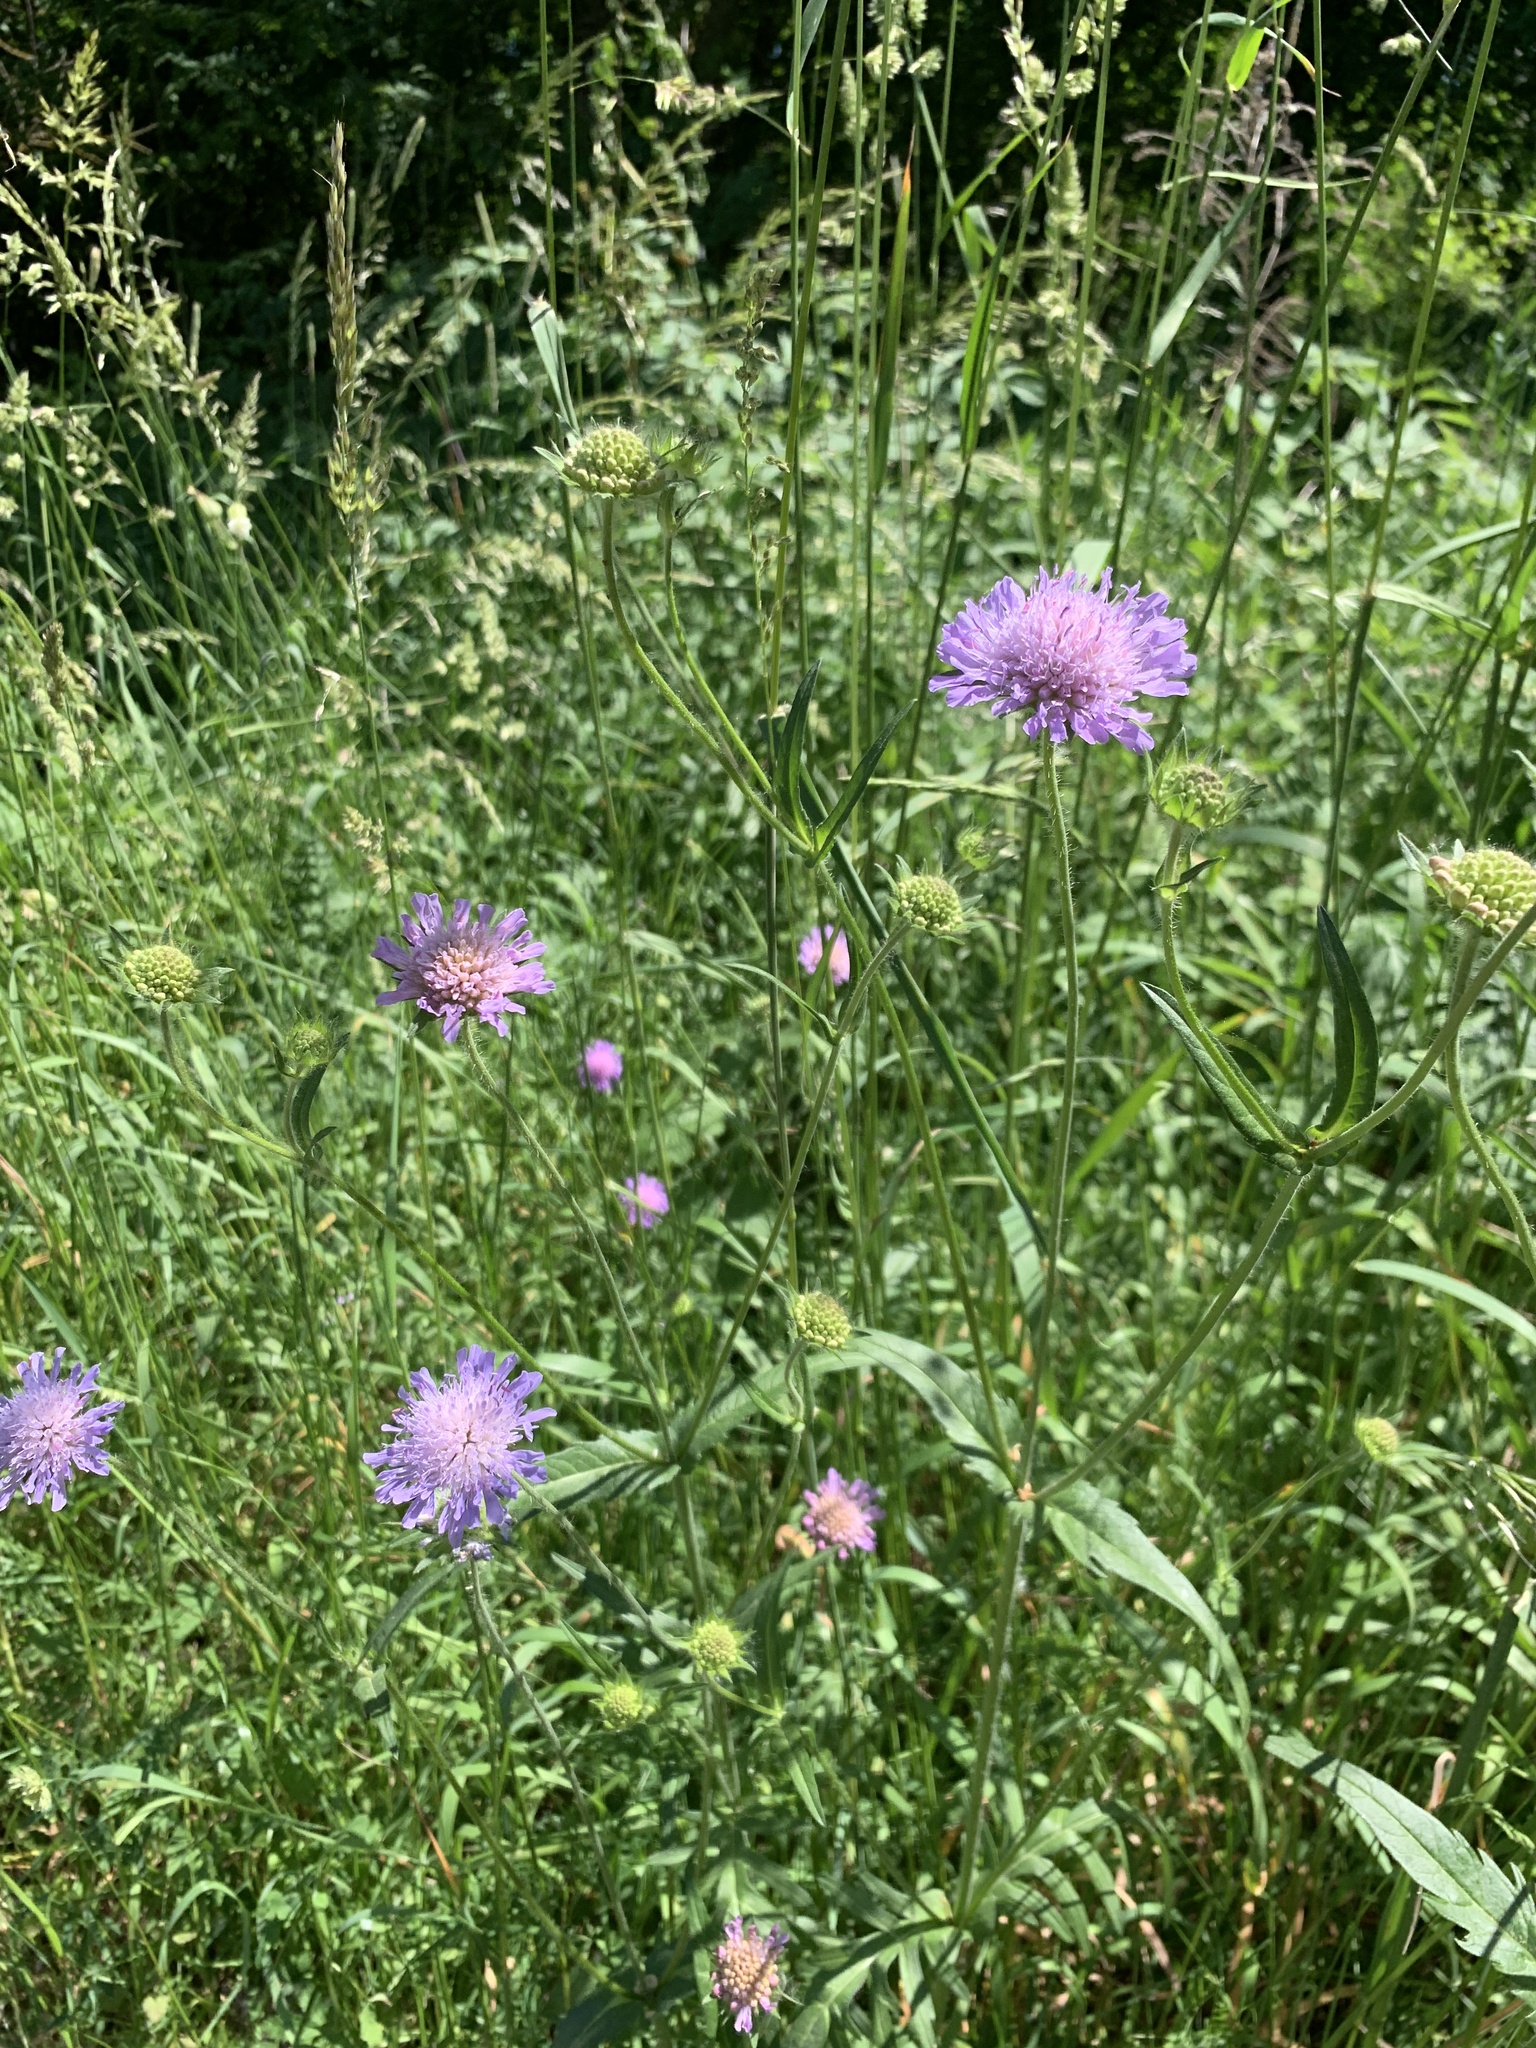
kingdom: Plantae
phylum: Tracheophyta
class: Magnoliopsida
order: Dipsacales
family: Caprifoliaceae
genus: Knautia
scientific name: Knautia arvensis
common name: Field scabiosa
